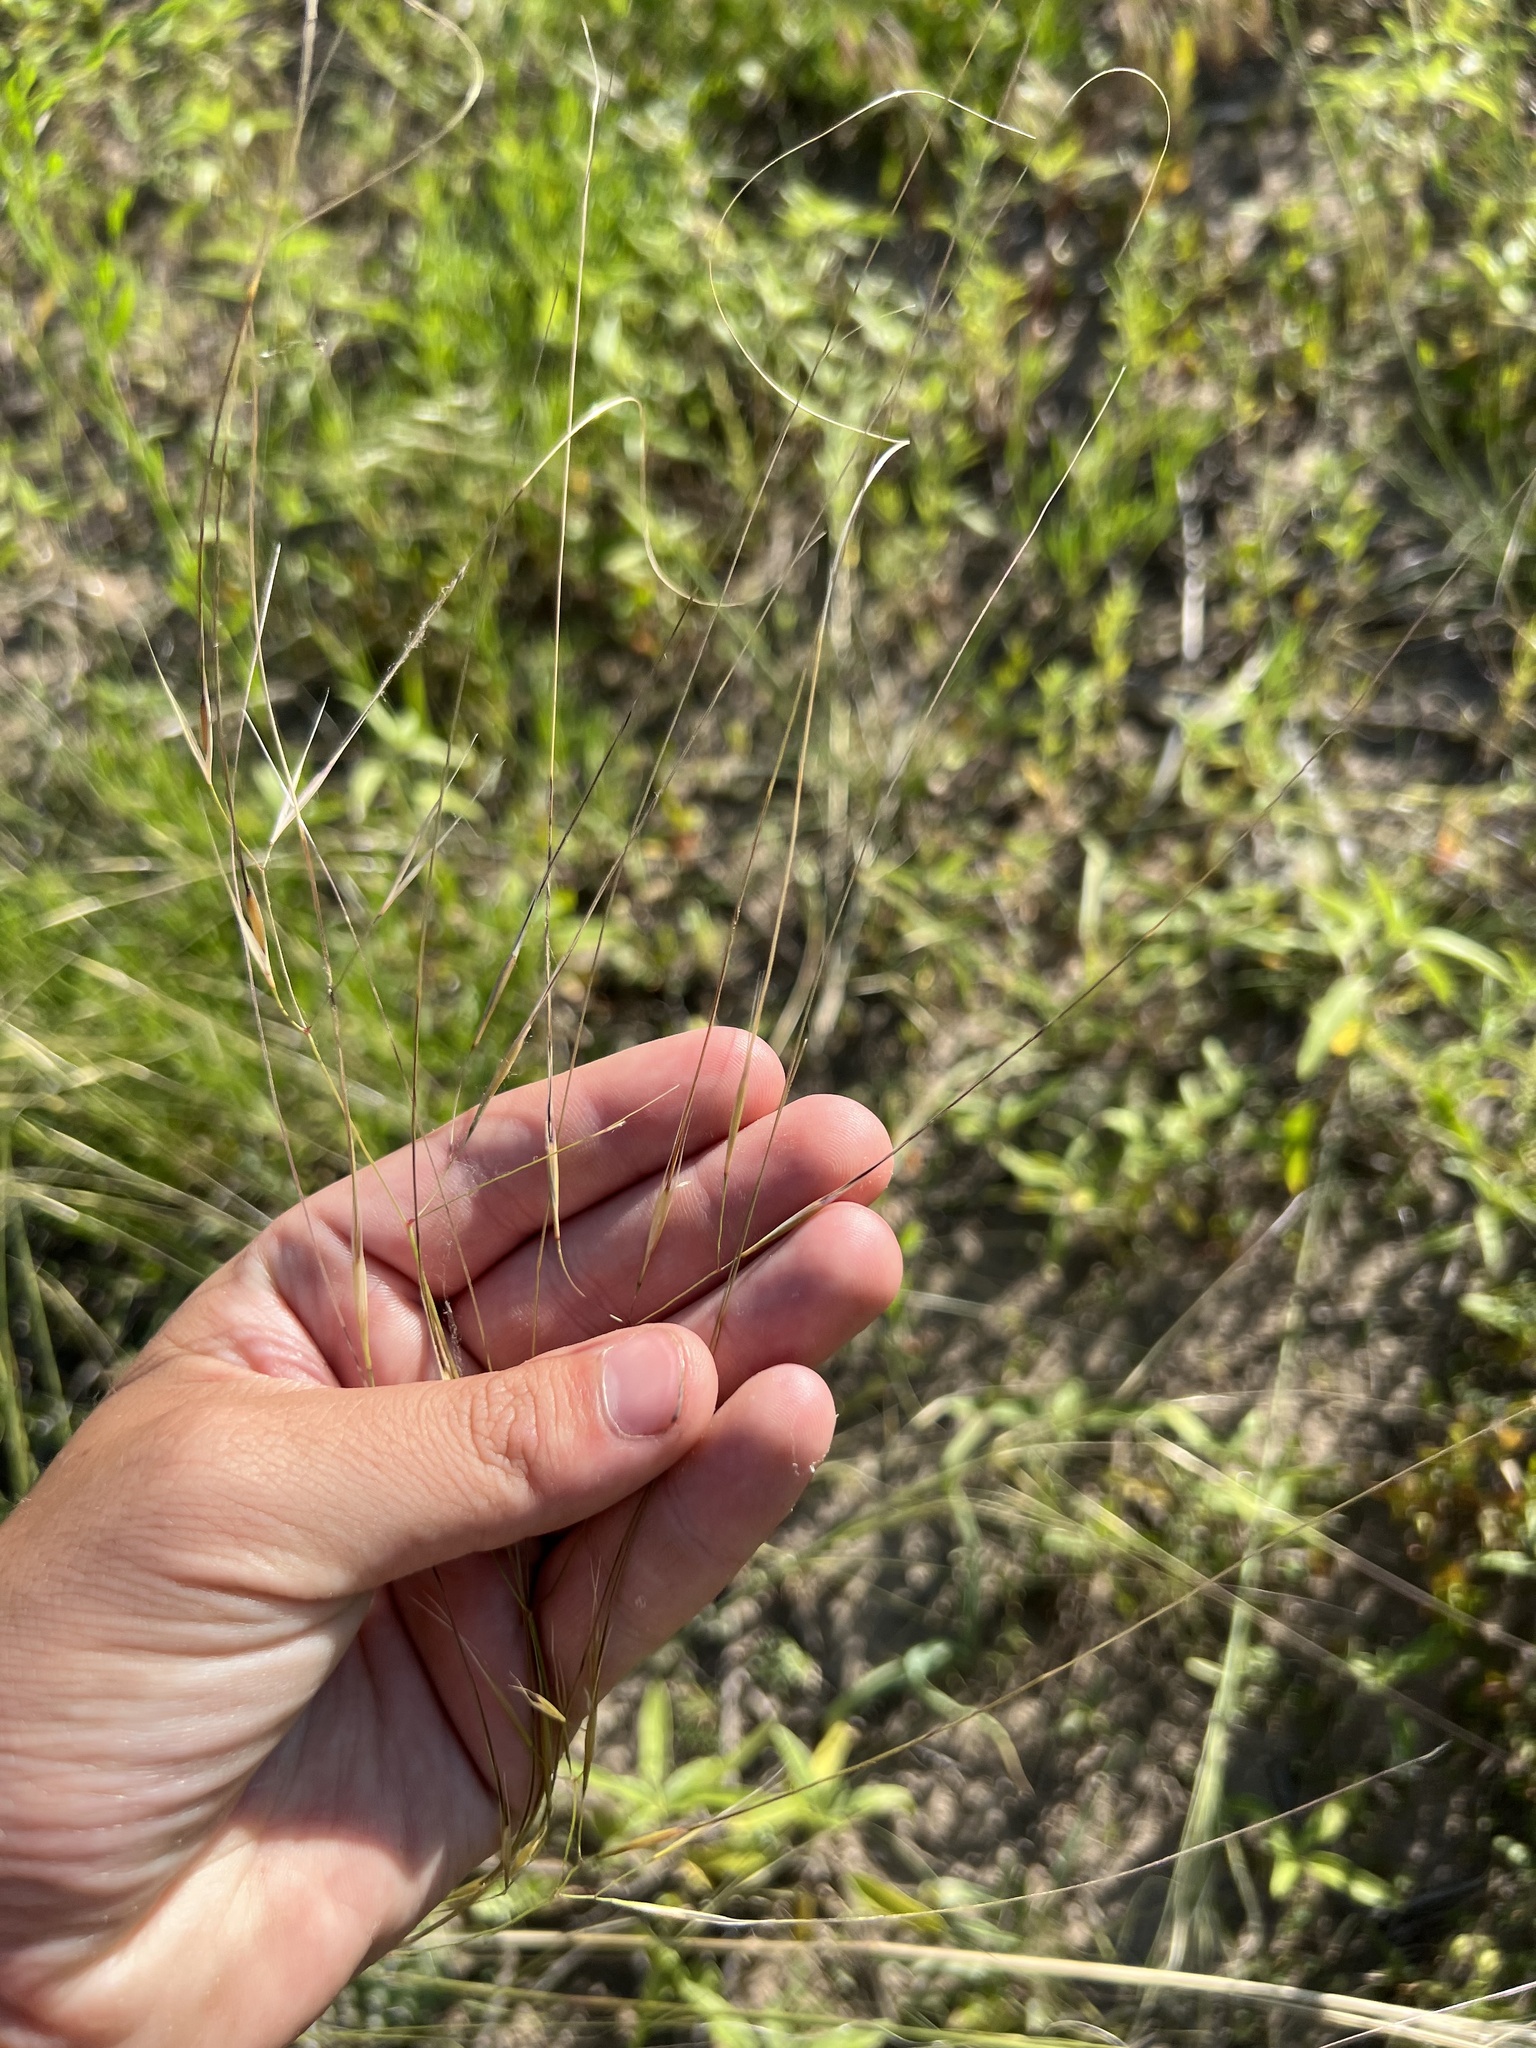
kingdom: Plantae
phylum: Tracheophyta
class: Liliopsida
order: Poales
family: Poaceae
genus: Hesperostipa
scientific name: Hesperostipa comata
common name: Needle-and-thread grass
